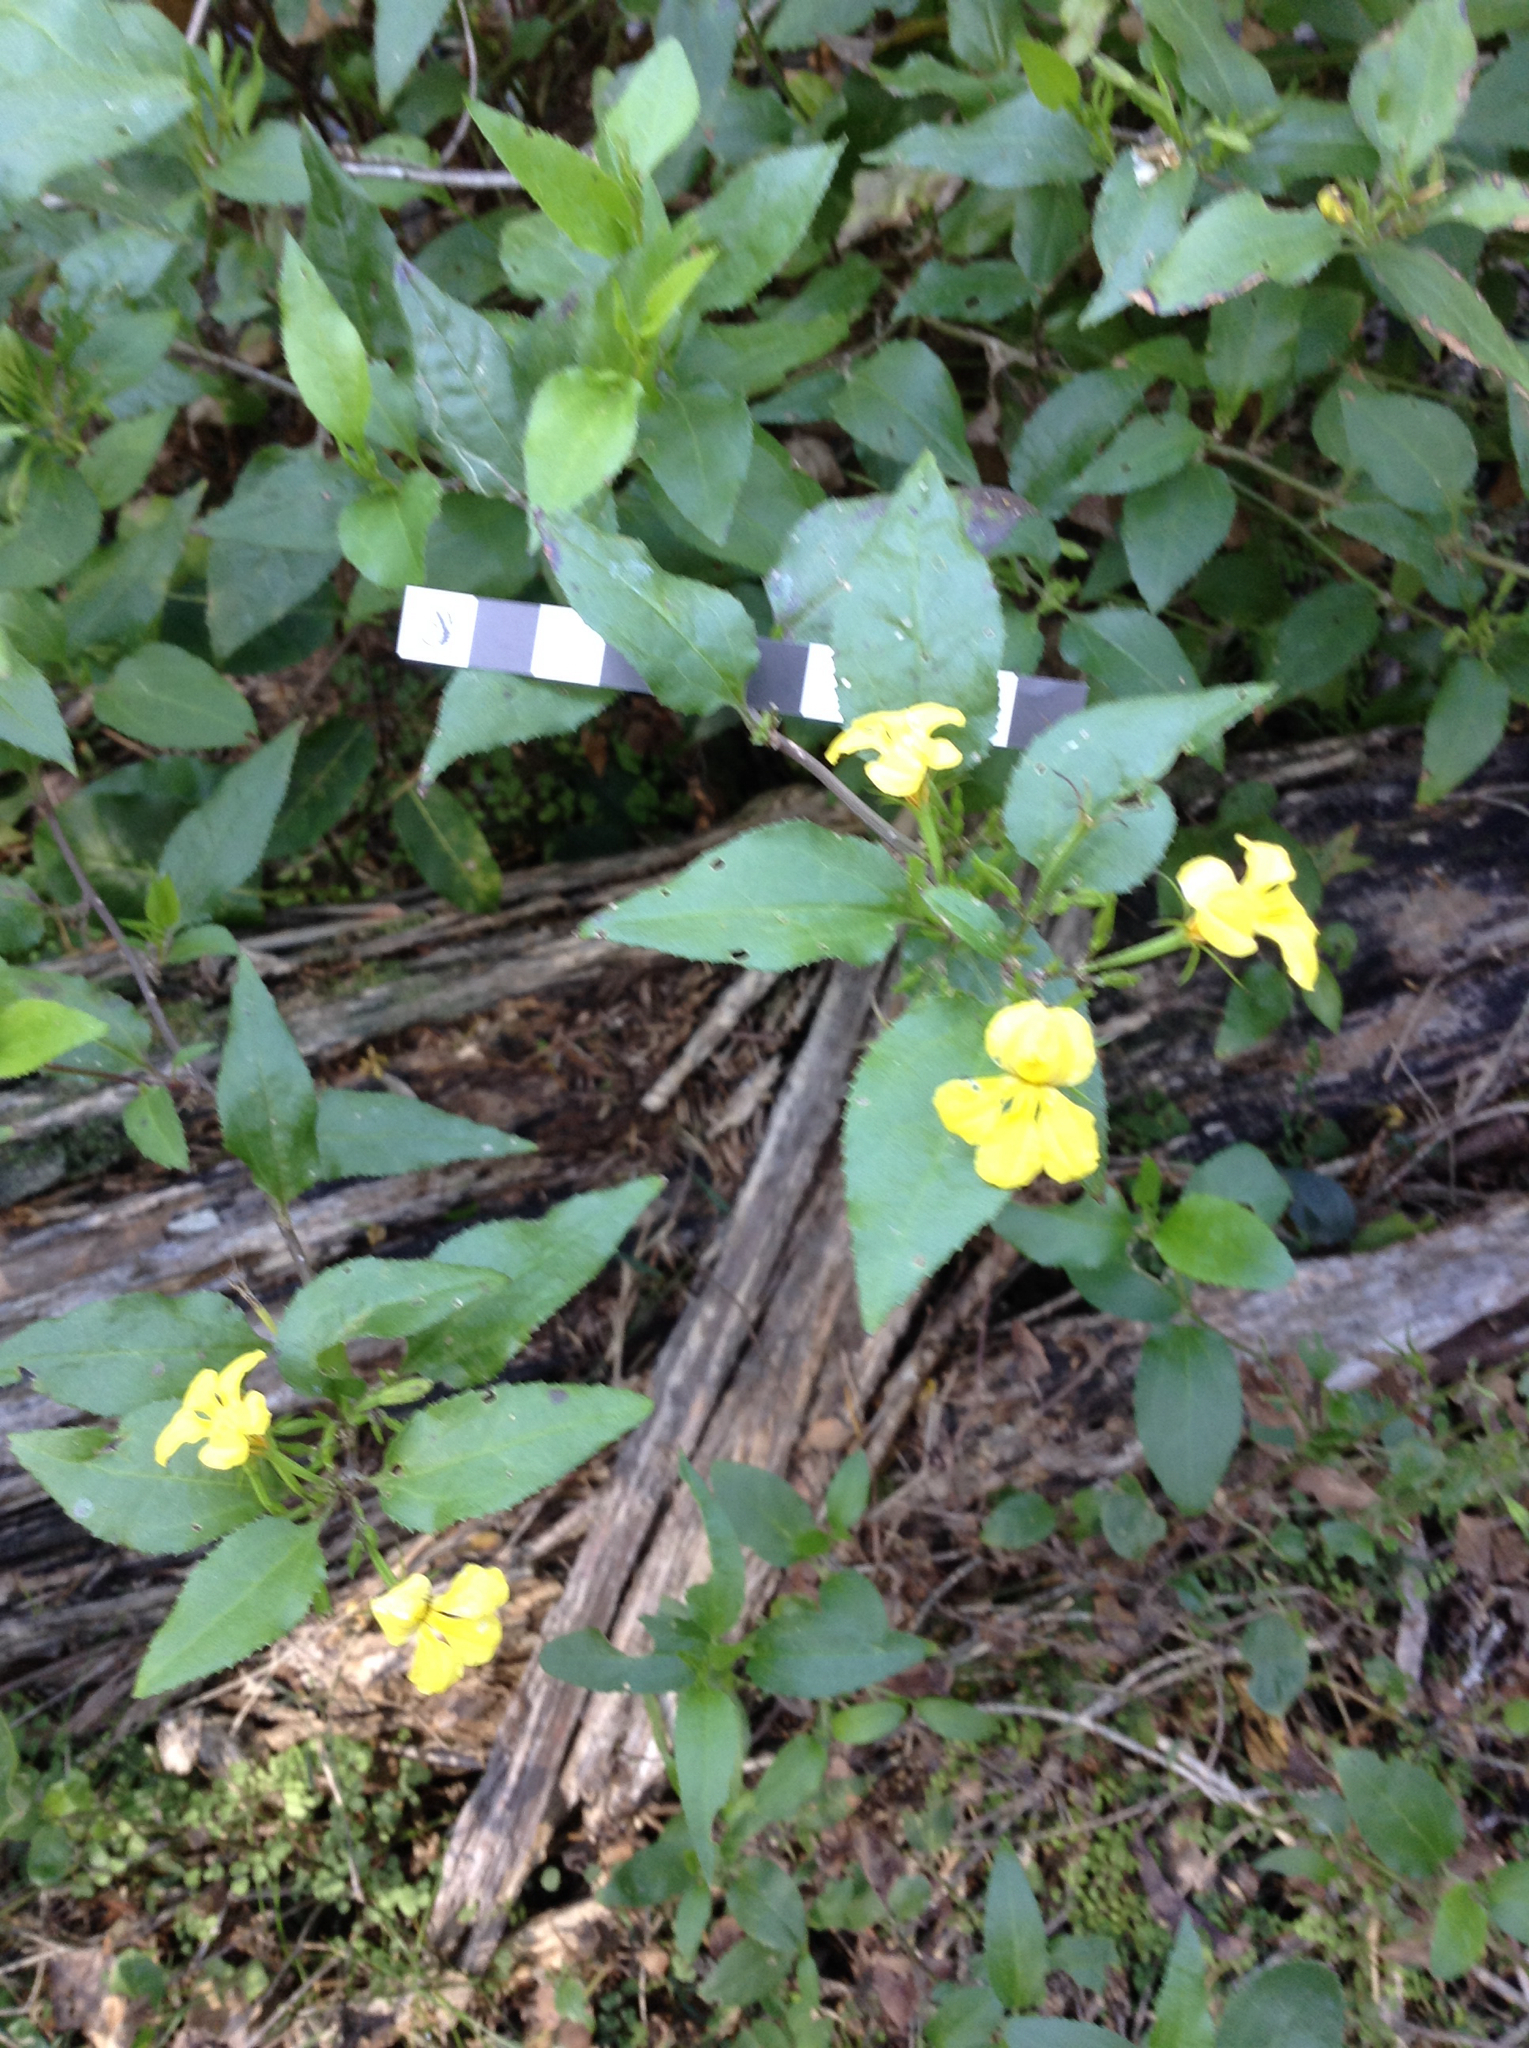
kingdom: Plantae
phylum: Tracheophyta
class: Magnoliopsida
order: Asterales
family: Goodeniaceae
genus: Goodenia
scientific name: Goodenia ovata
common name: Hop goodenia
